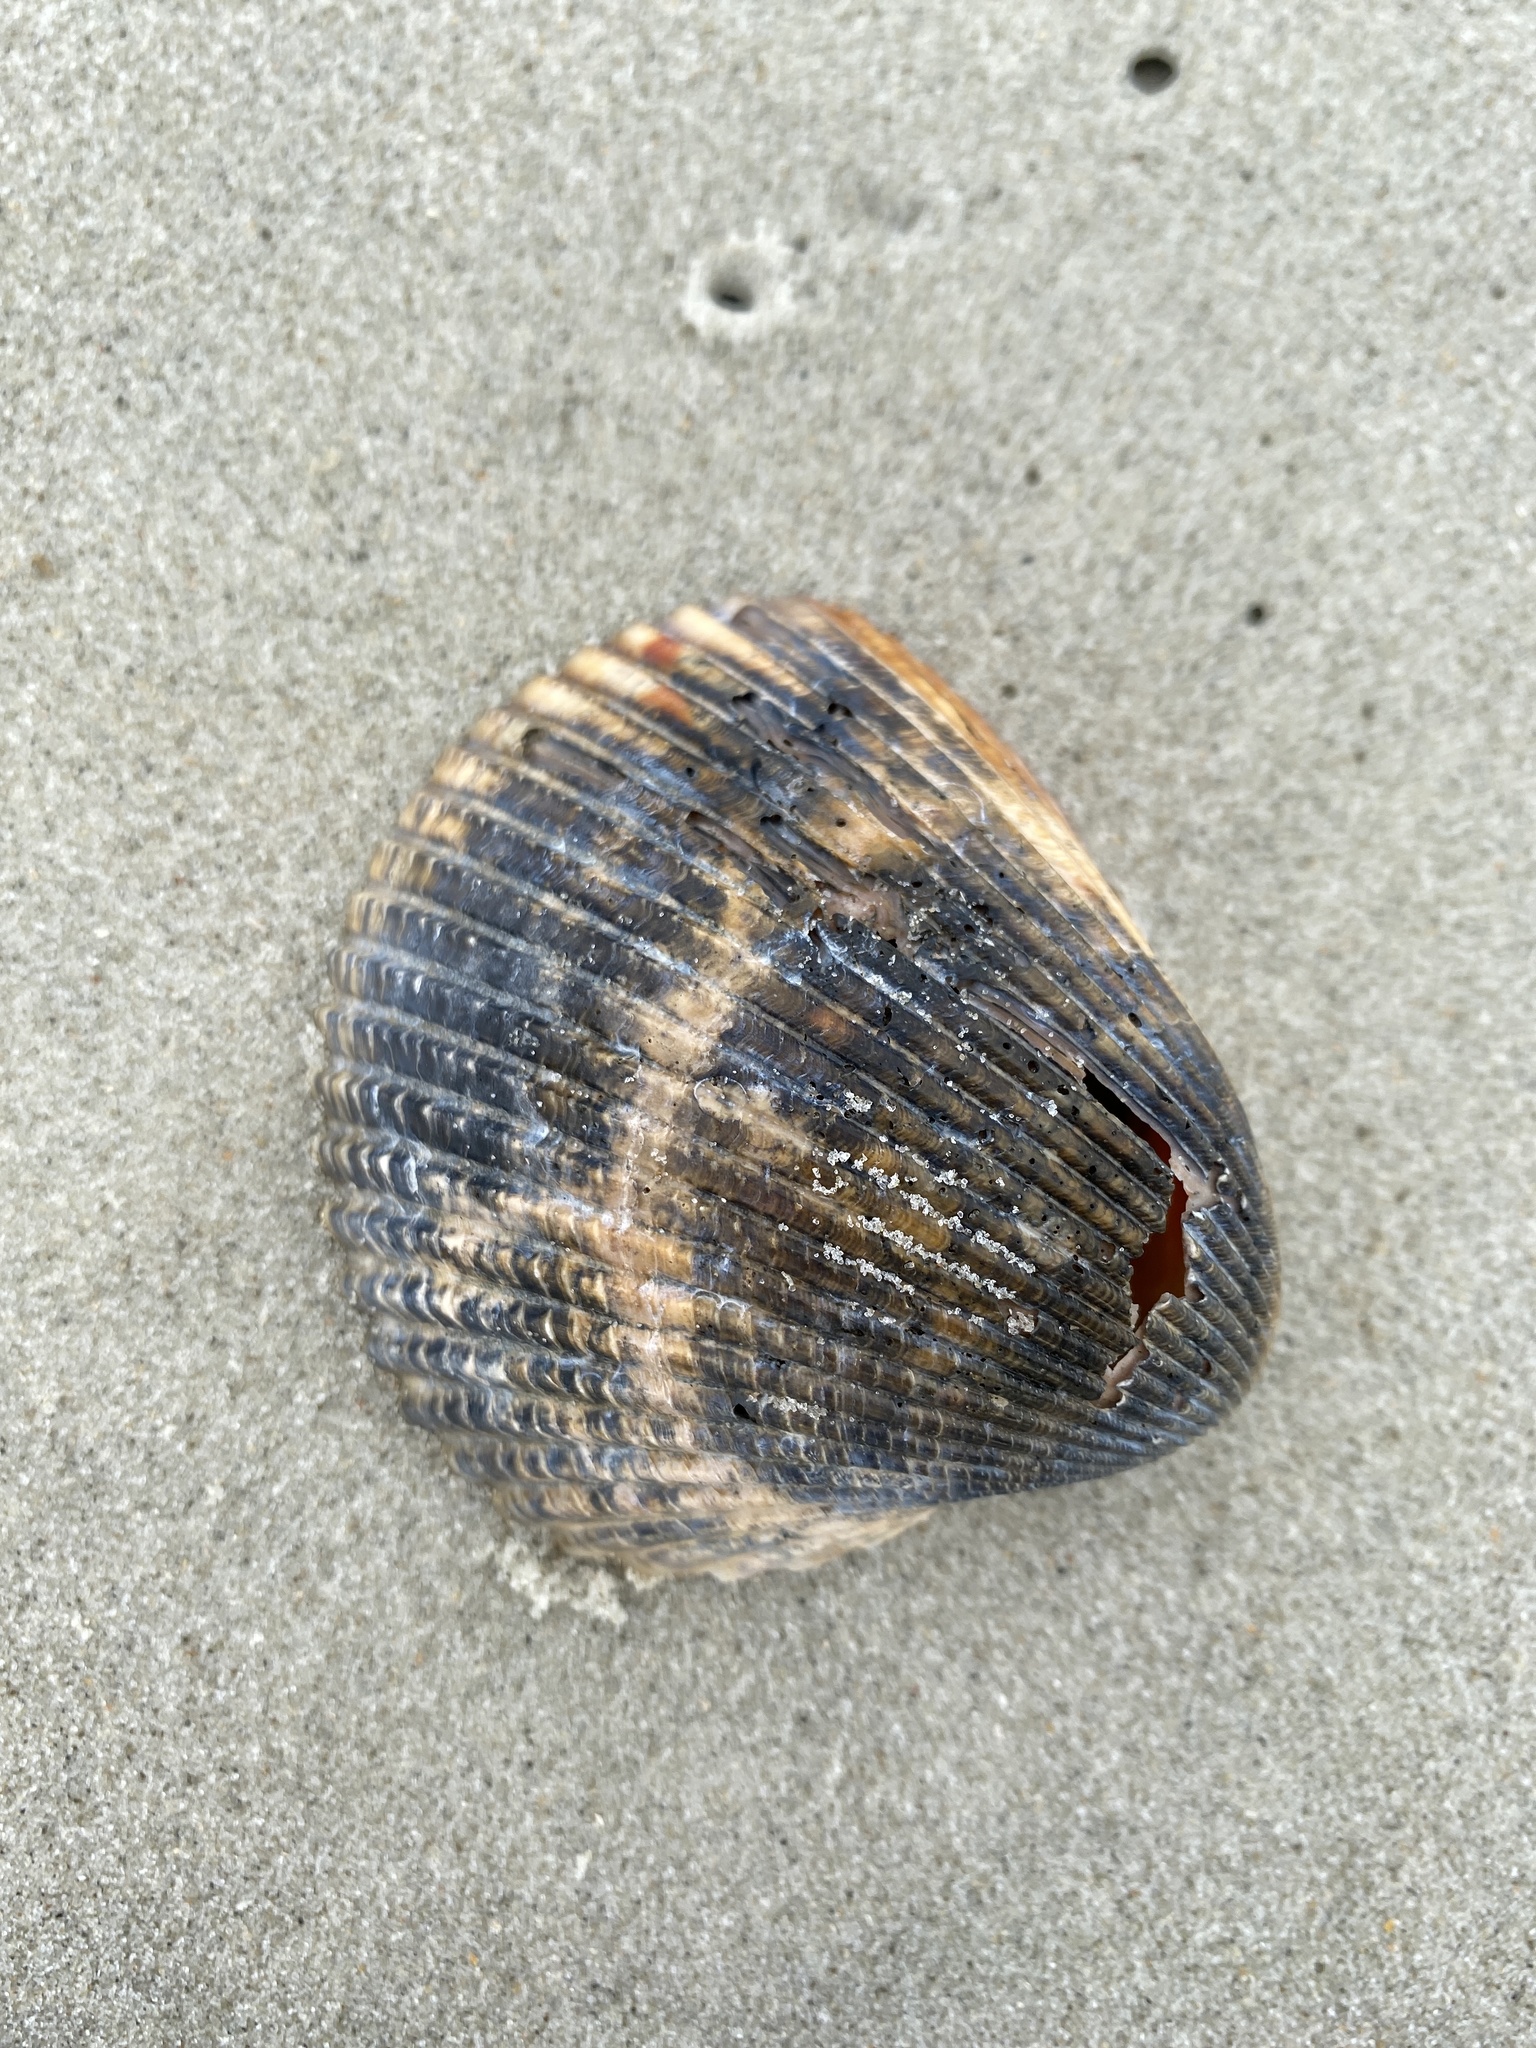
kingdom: Animalia
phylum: Mollusca
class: Bivalvia
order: Cardiida
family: Cardiidae
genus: Dinocardium
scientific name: Dinocardium robustum
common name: Atlantic giant cockle
